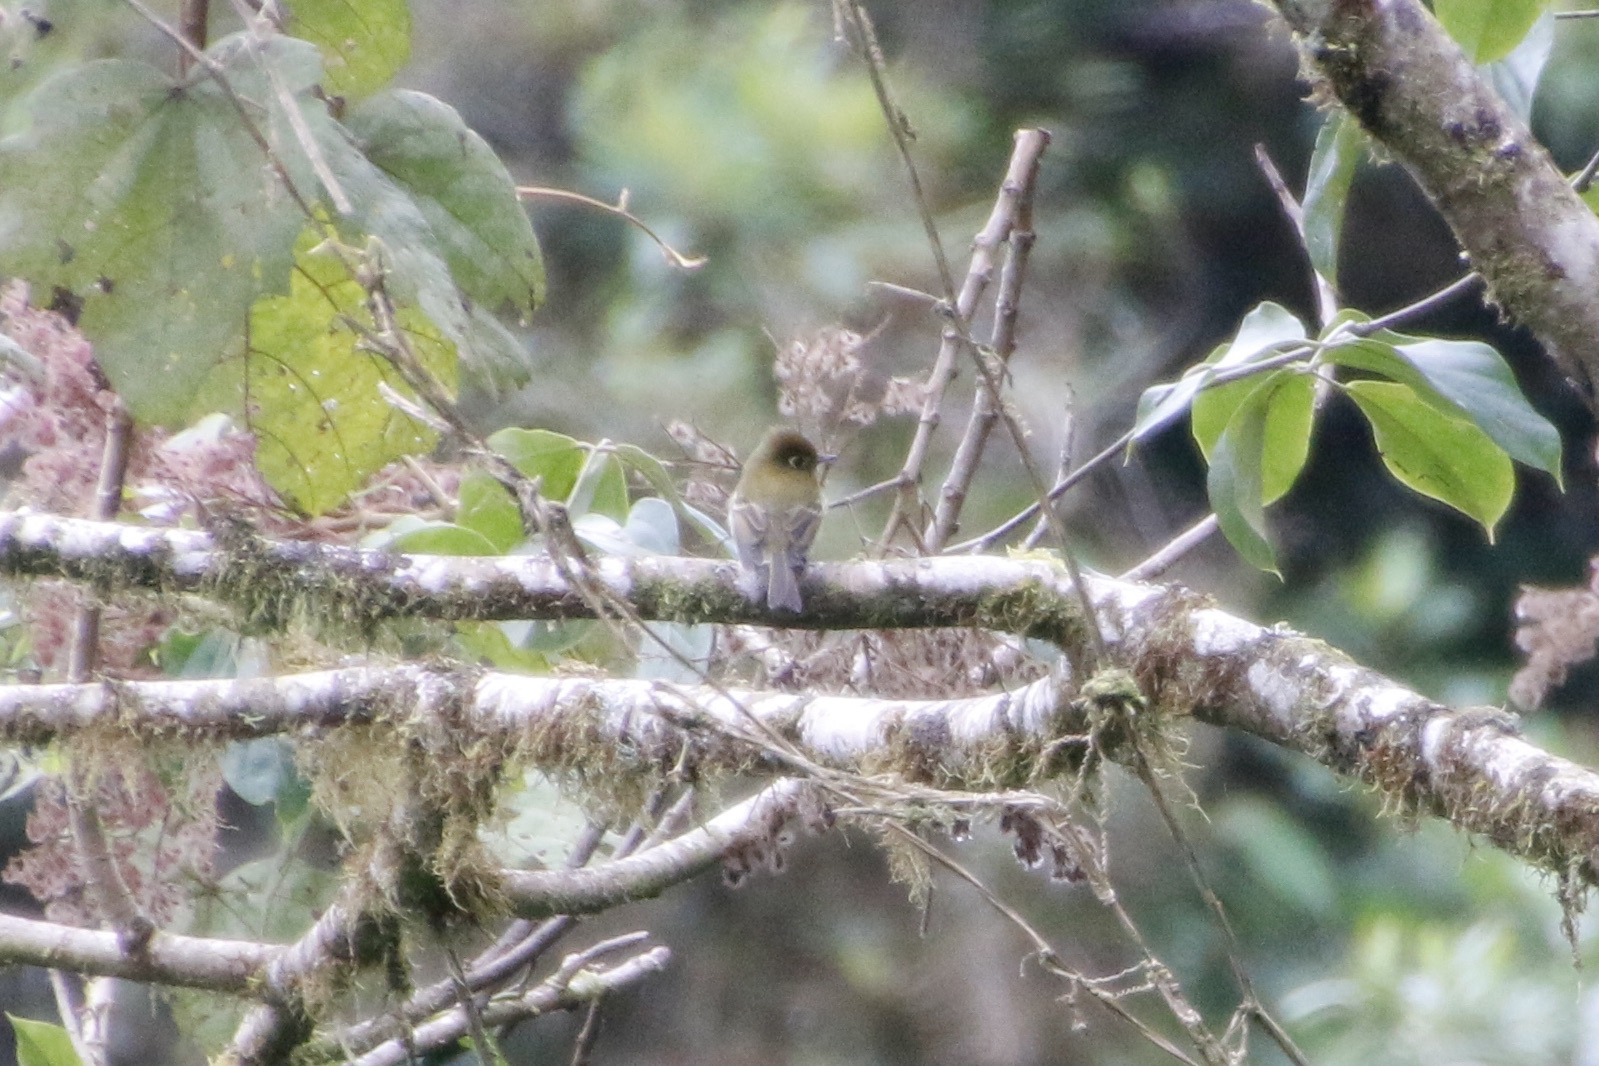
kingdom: Animalia
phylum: Chordata
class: Aves
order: Passeriformes
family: Tyrannidae
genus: Empidonax
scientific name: Empidonax flavescens
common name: Yellowish flycatcher
